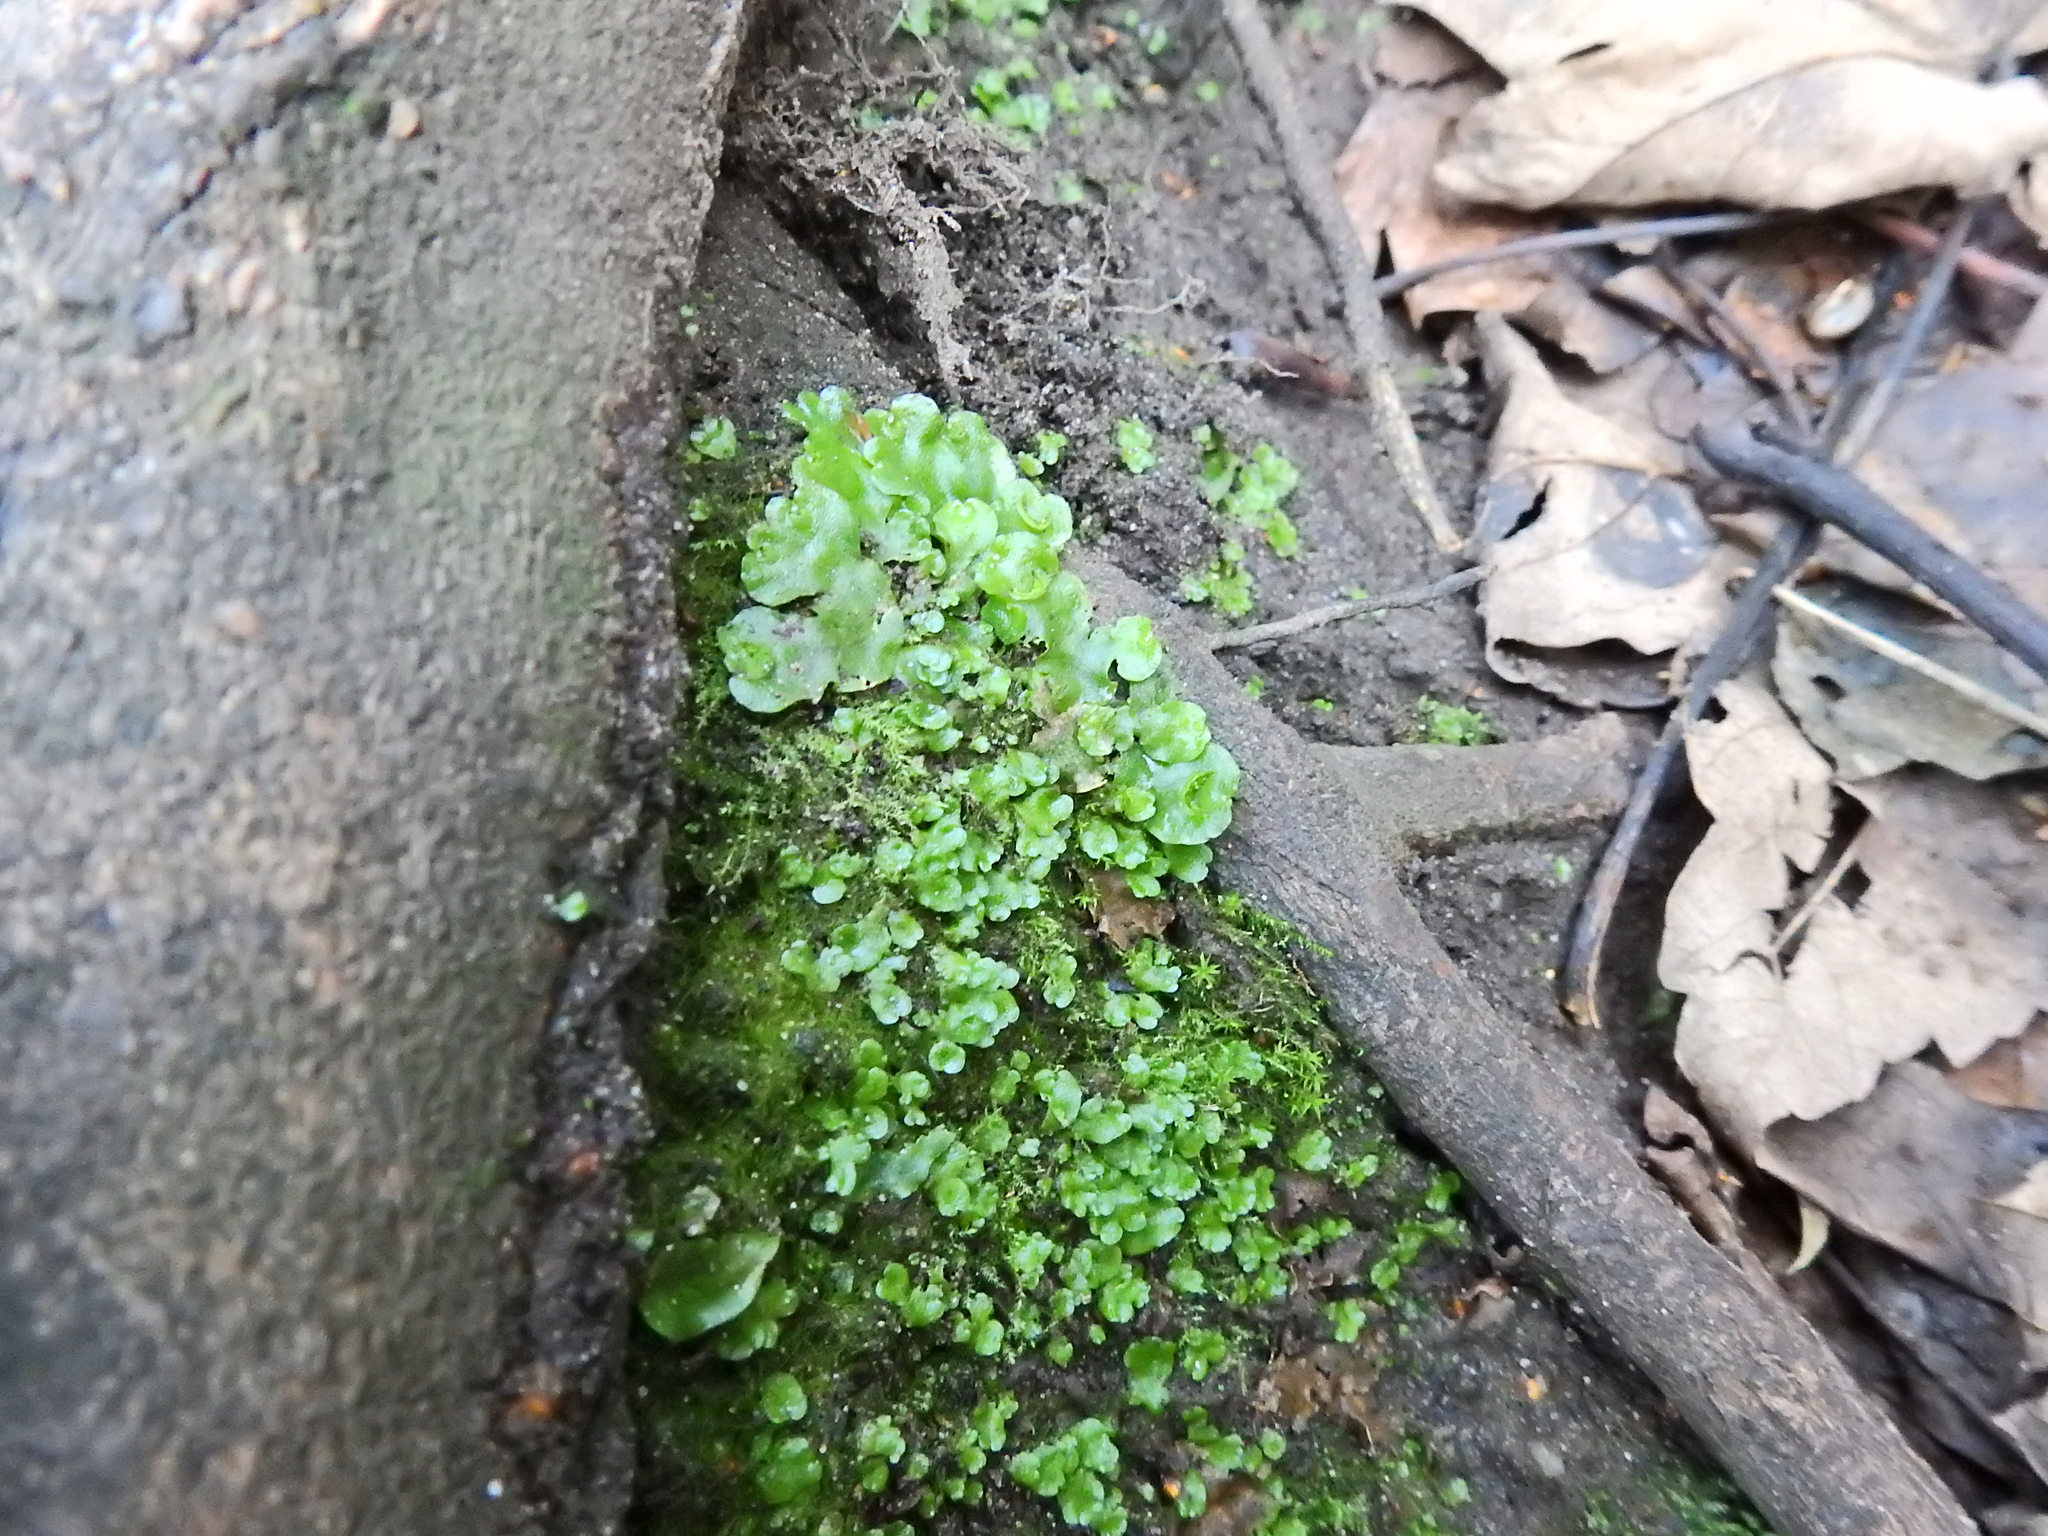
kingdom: Plantae
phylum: Marchantiophyta
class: Marchantiopsida
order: Lunulariales
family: Lunulariaceae
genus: Lunularia
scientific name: Lunularia cruciata
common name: Crescent-cup liverwort
